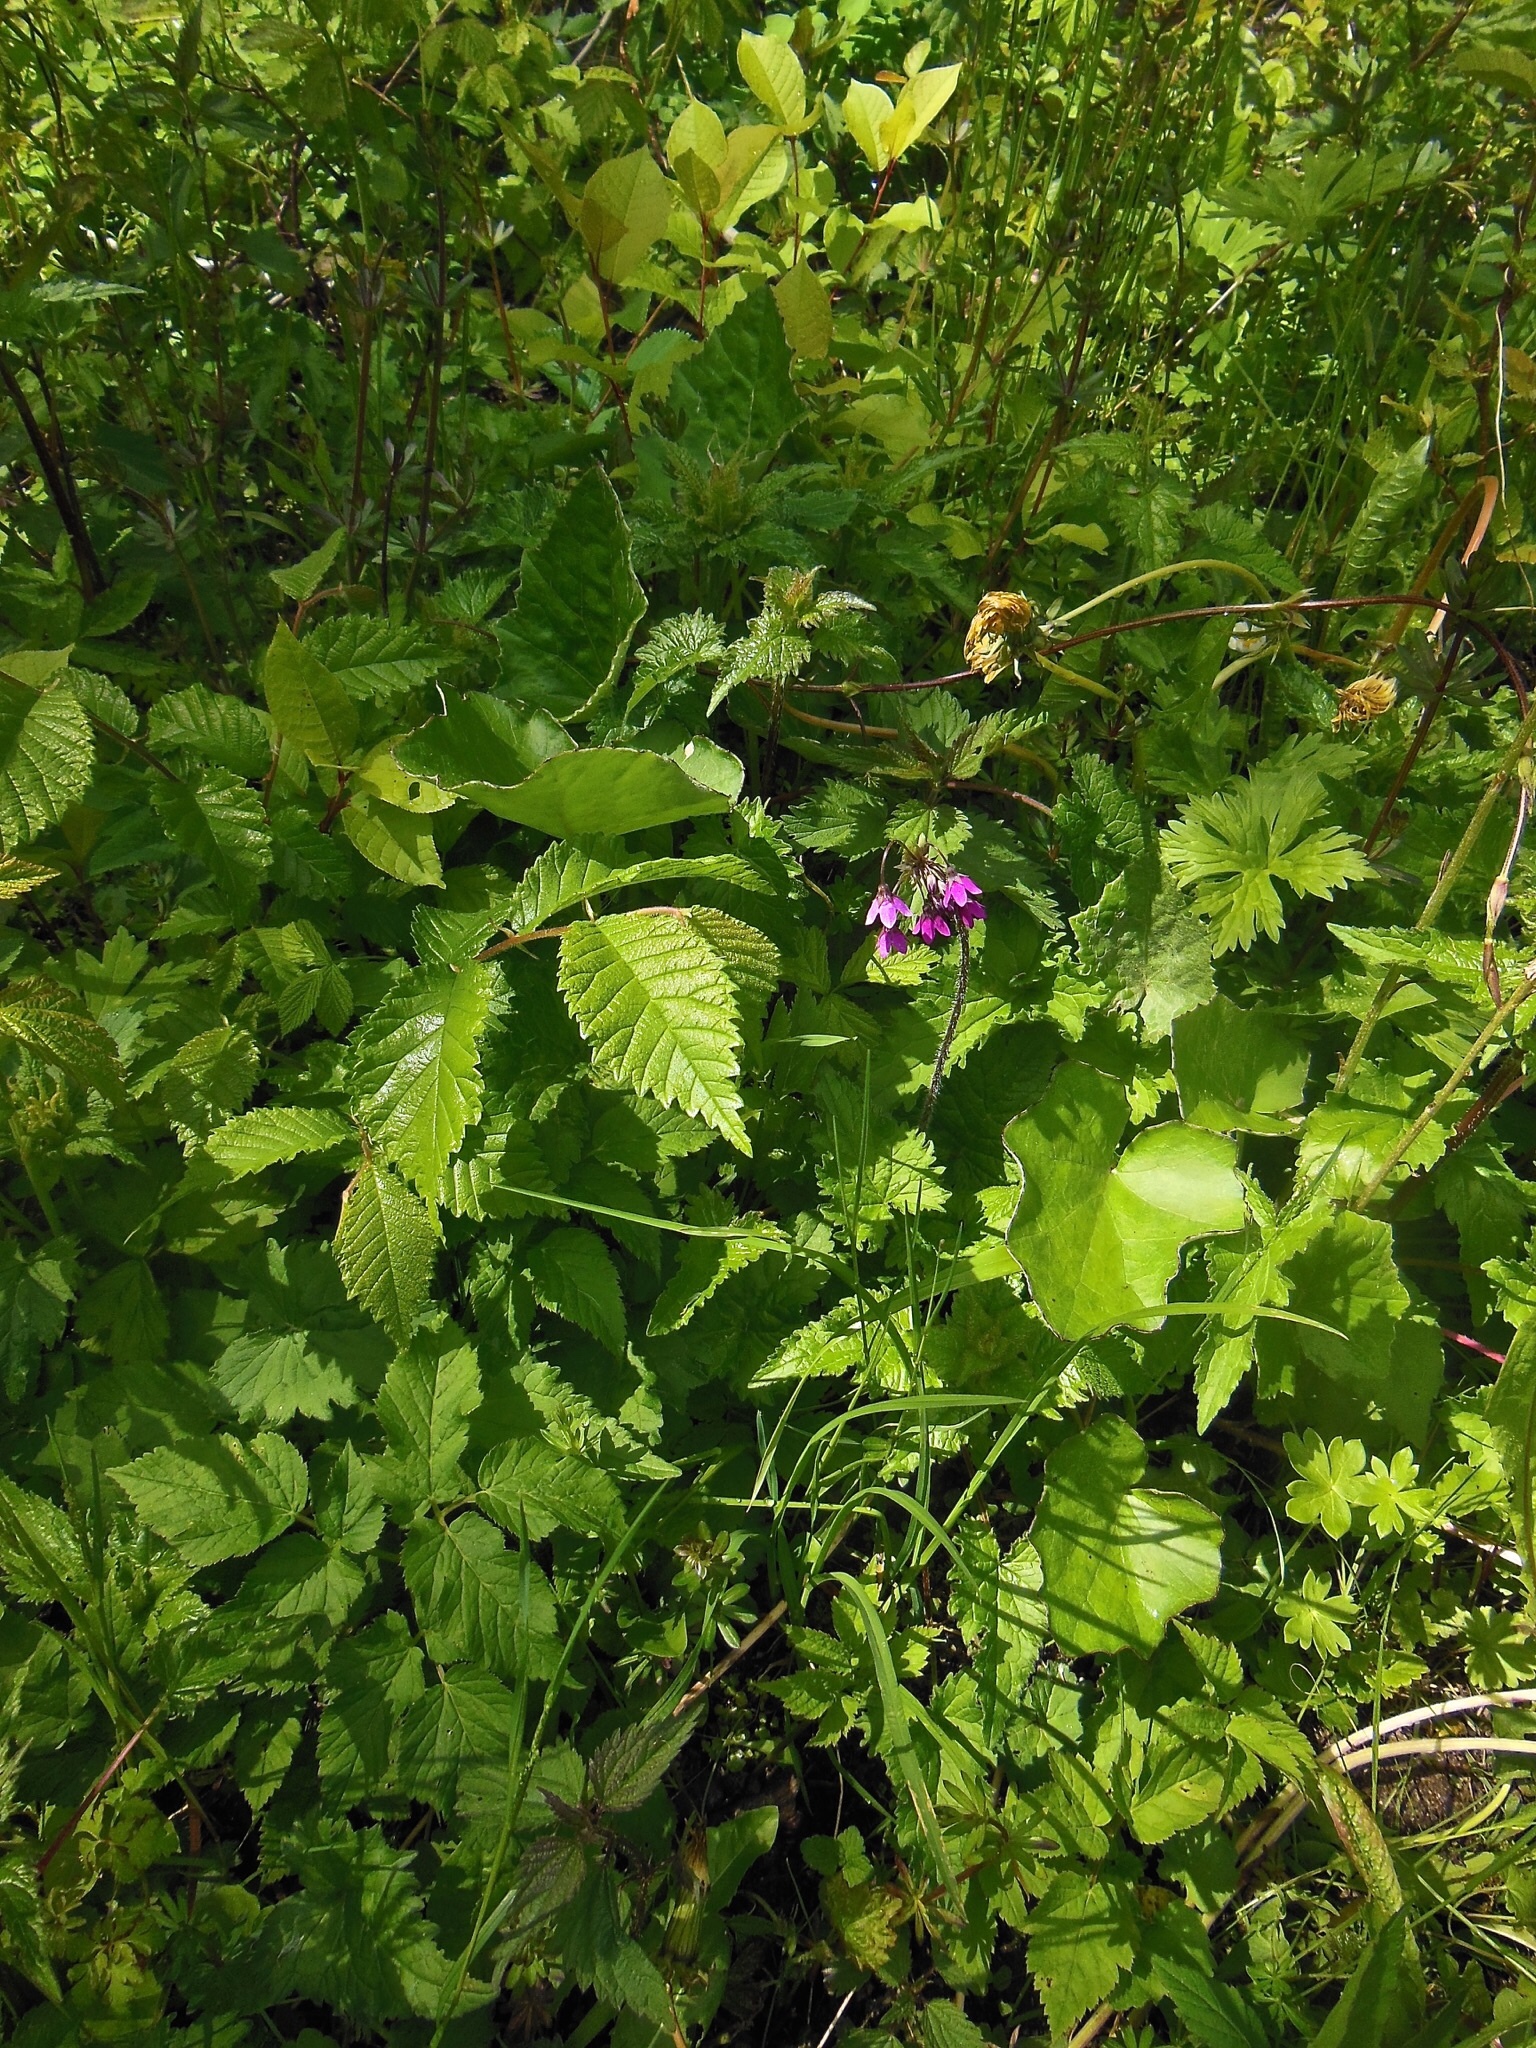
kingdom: Plantae
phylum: Tracheophyta
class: Magnoliopsida
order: Ericales
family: Primulaceae
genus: Primula
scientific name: Primula matthioli
